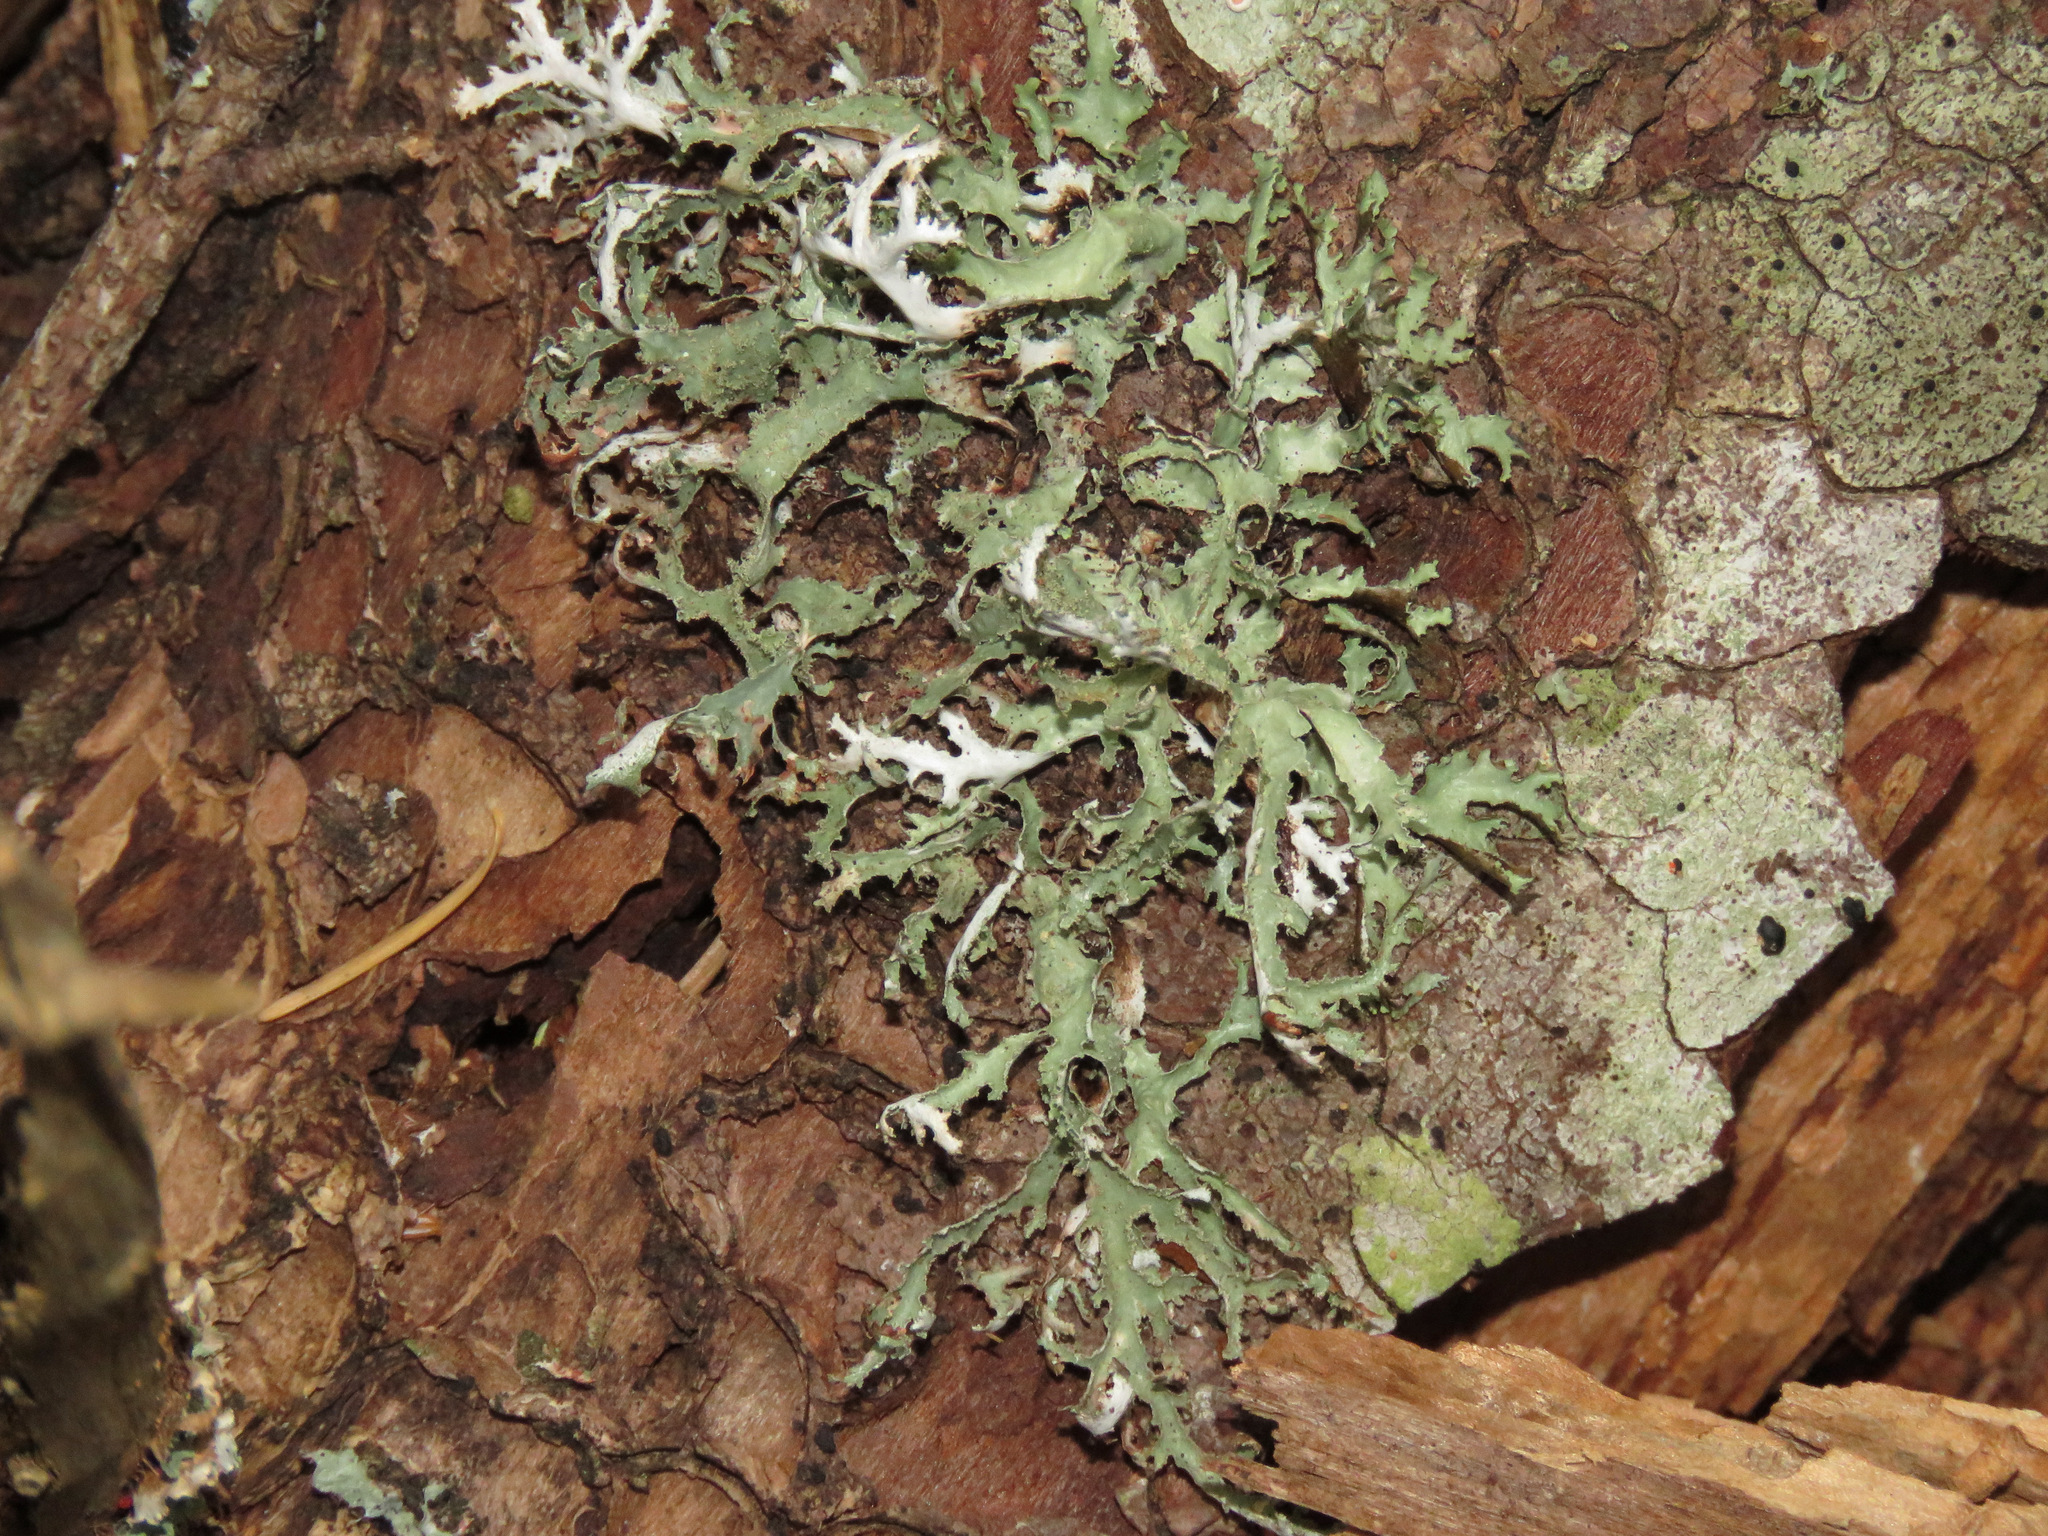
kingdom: Fungi
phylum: Ascomycota
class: Lecanoromycetes
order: Lecanorales
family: Parmeliaceae
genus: Evernia
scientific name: Evernia prunastri
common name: Oak moss
